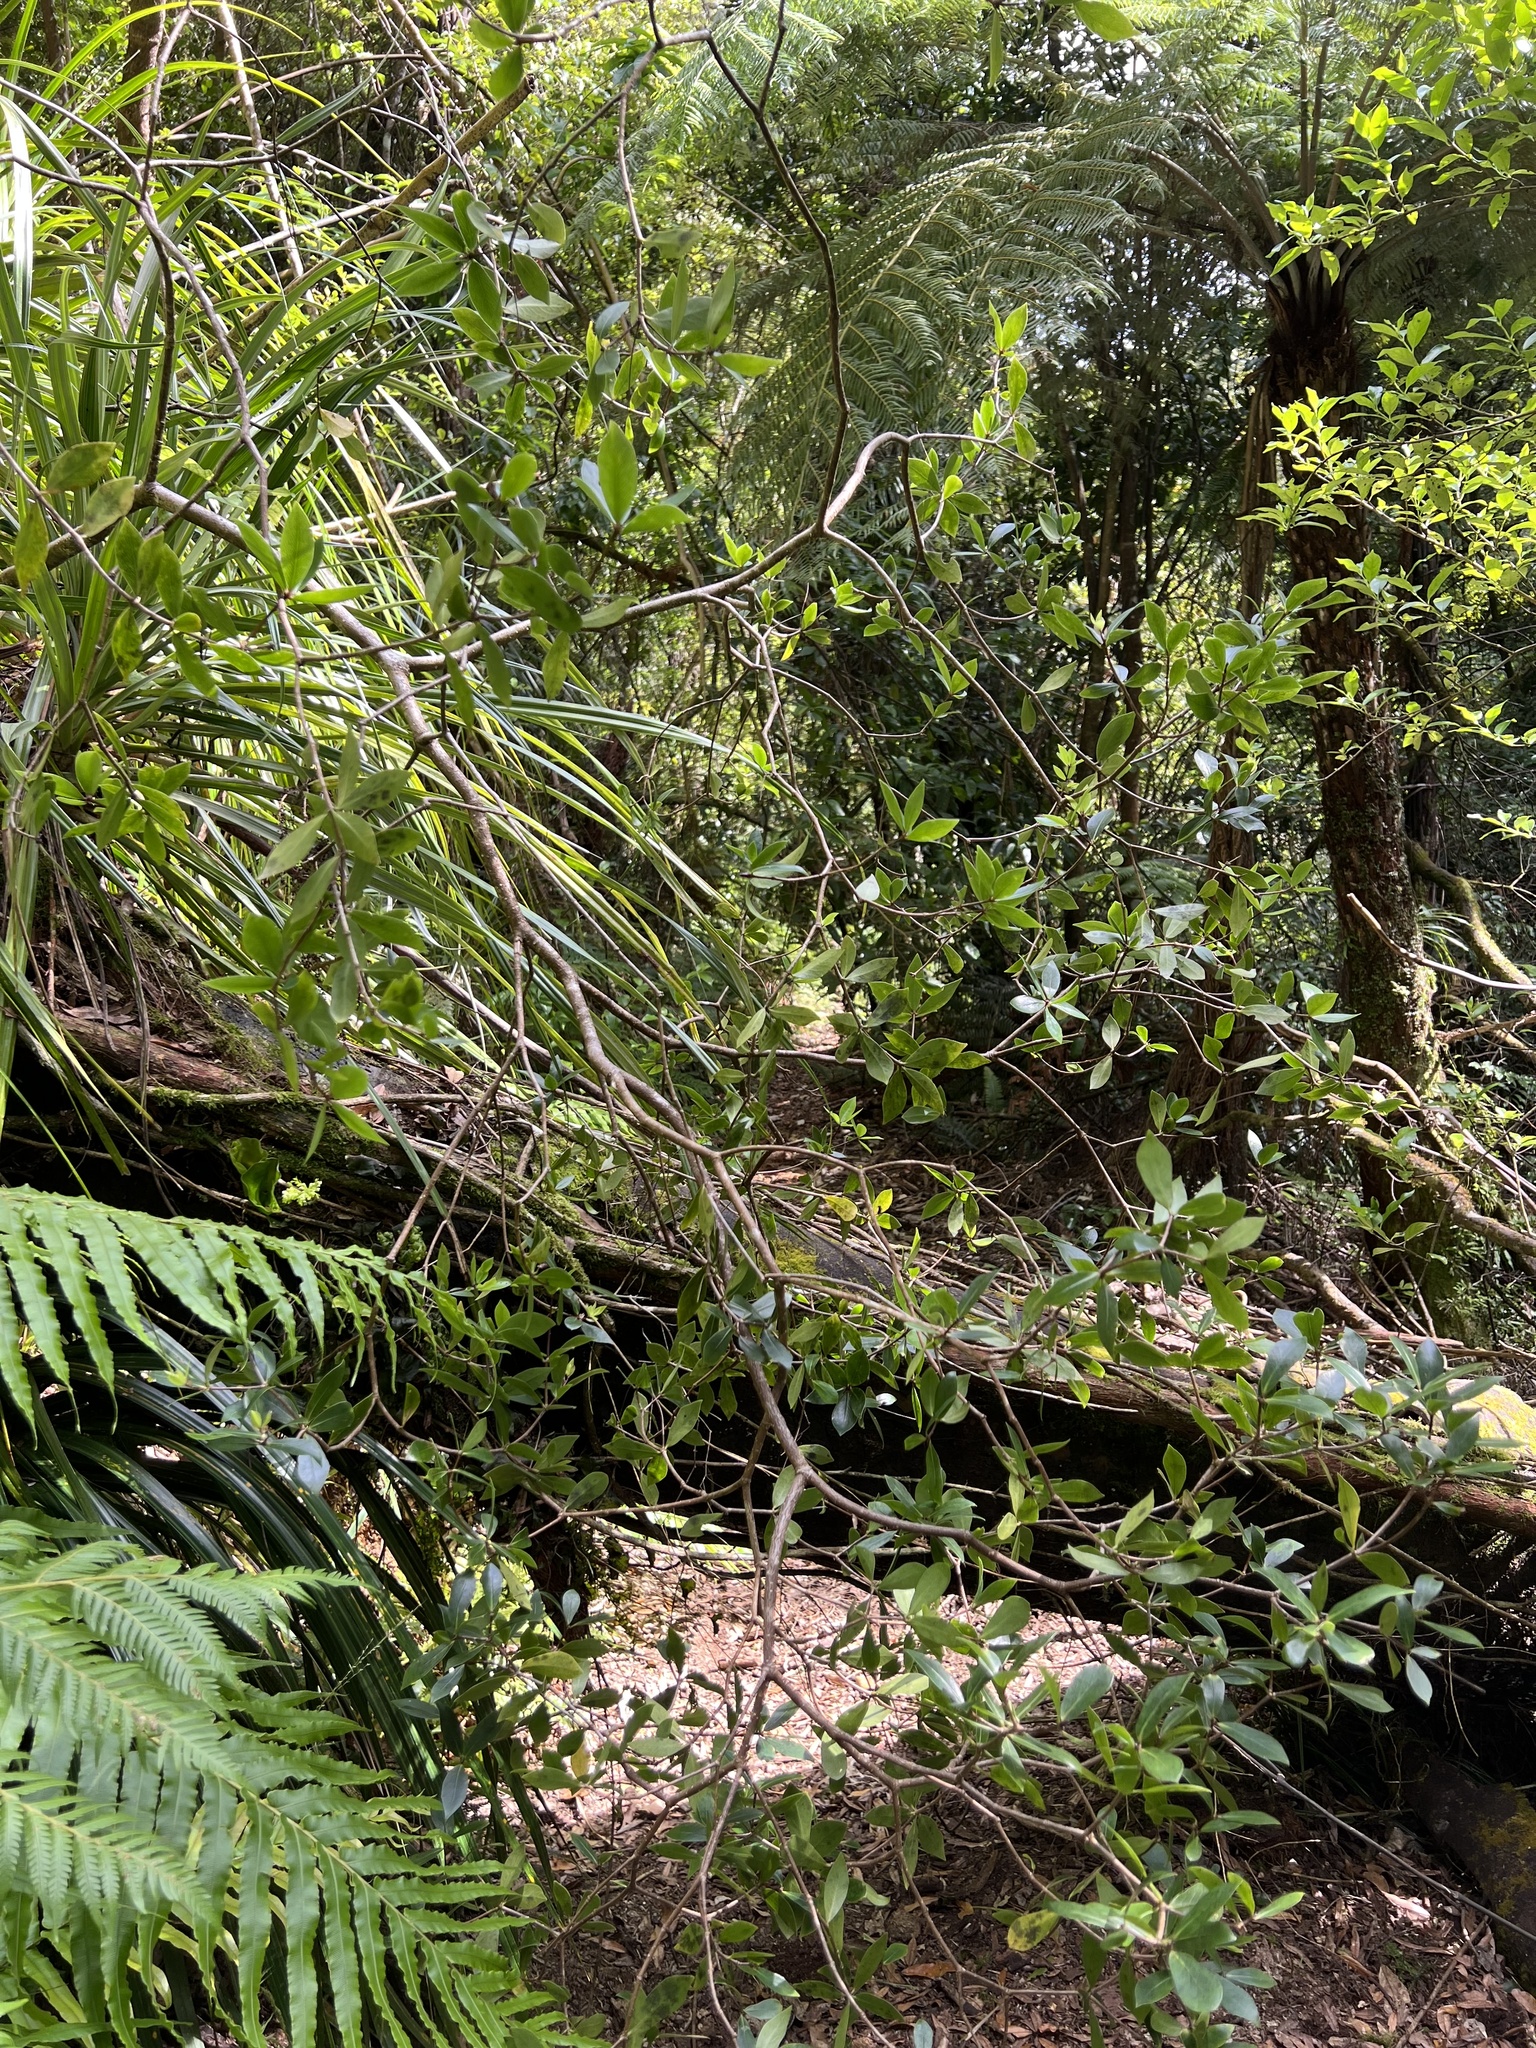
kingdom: Plantae
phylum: Tracheophyta
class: Magnoliopsida
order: Apiales
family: Pittosporaceae
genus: Pittosporum
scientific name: Pittosporum cornifolium
